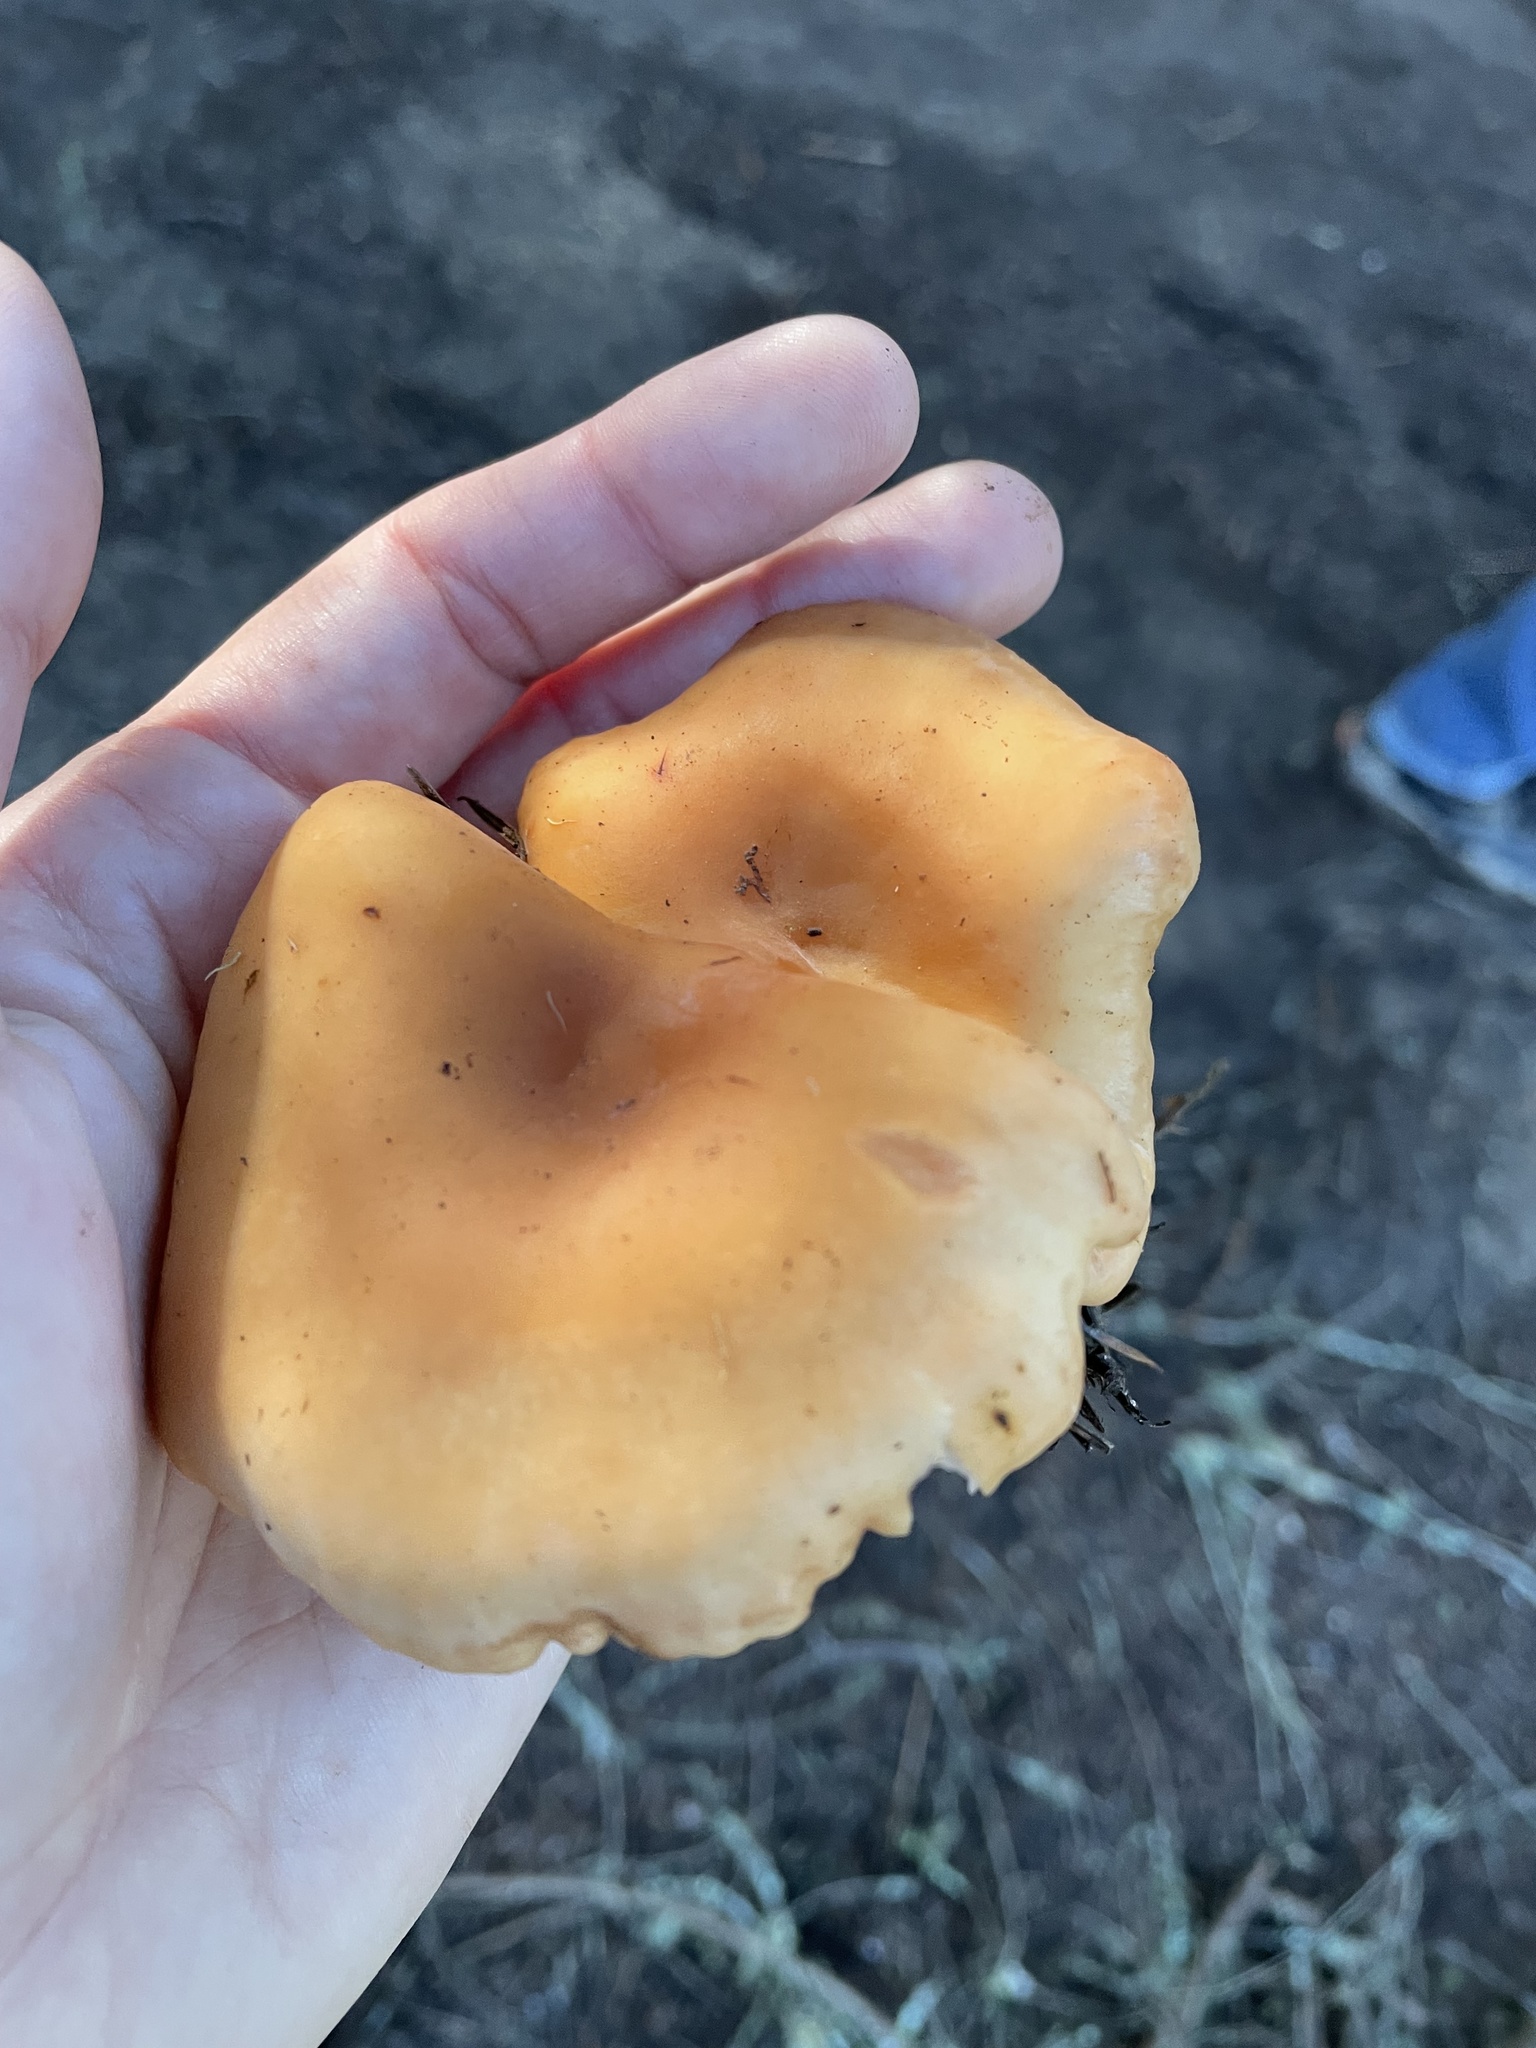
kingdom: Fungi
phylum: Basidiomycota
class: Agaricomycetes
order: Agaricales
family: Tricholomataceae
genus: Paralepista
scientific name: Paralepista flaccida
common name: Tawny funnel cap
